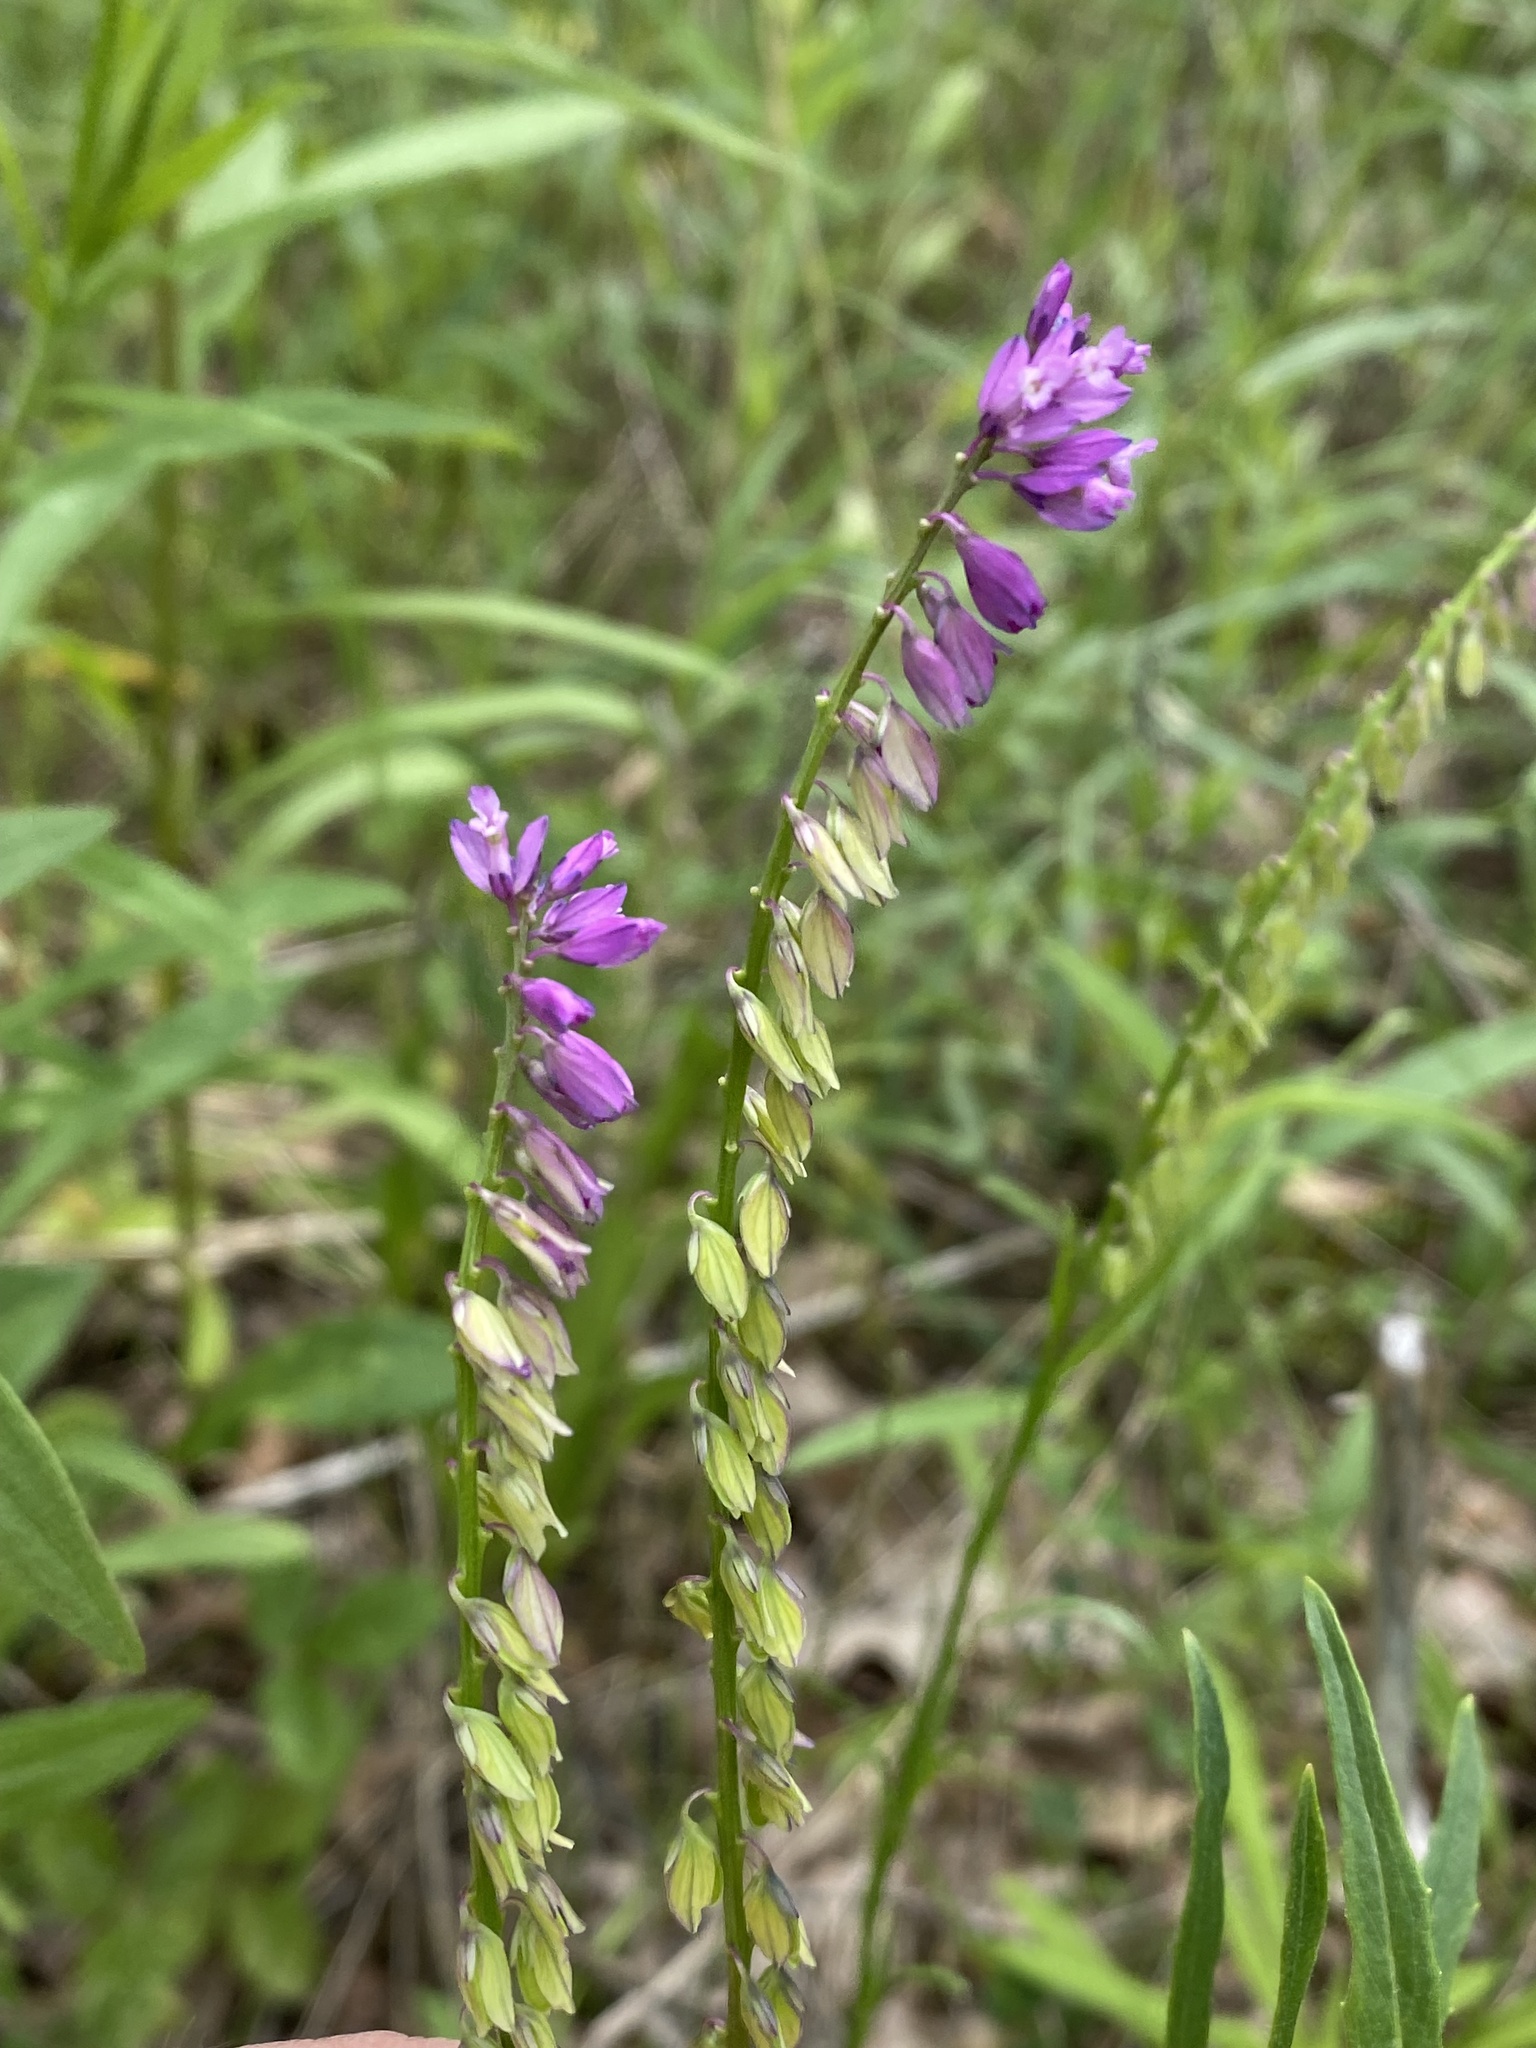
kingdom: Plantae
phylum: Tracheophyta
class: Magnoliopsida
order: Fabales
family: Polygalaceae
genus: Polygala
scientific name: Polygala comosa
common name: Tufted milkwort
